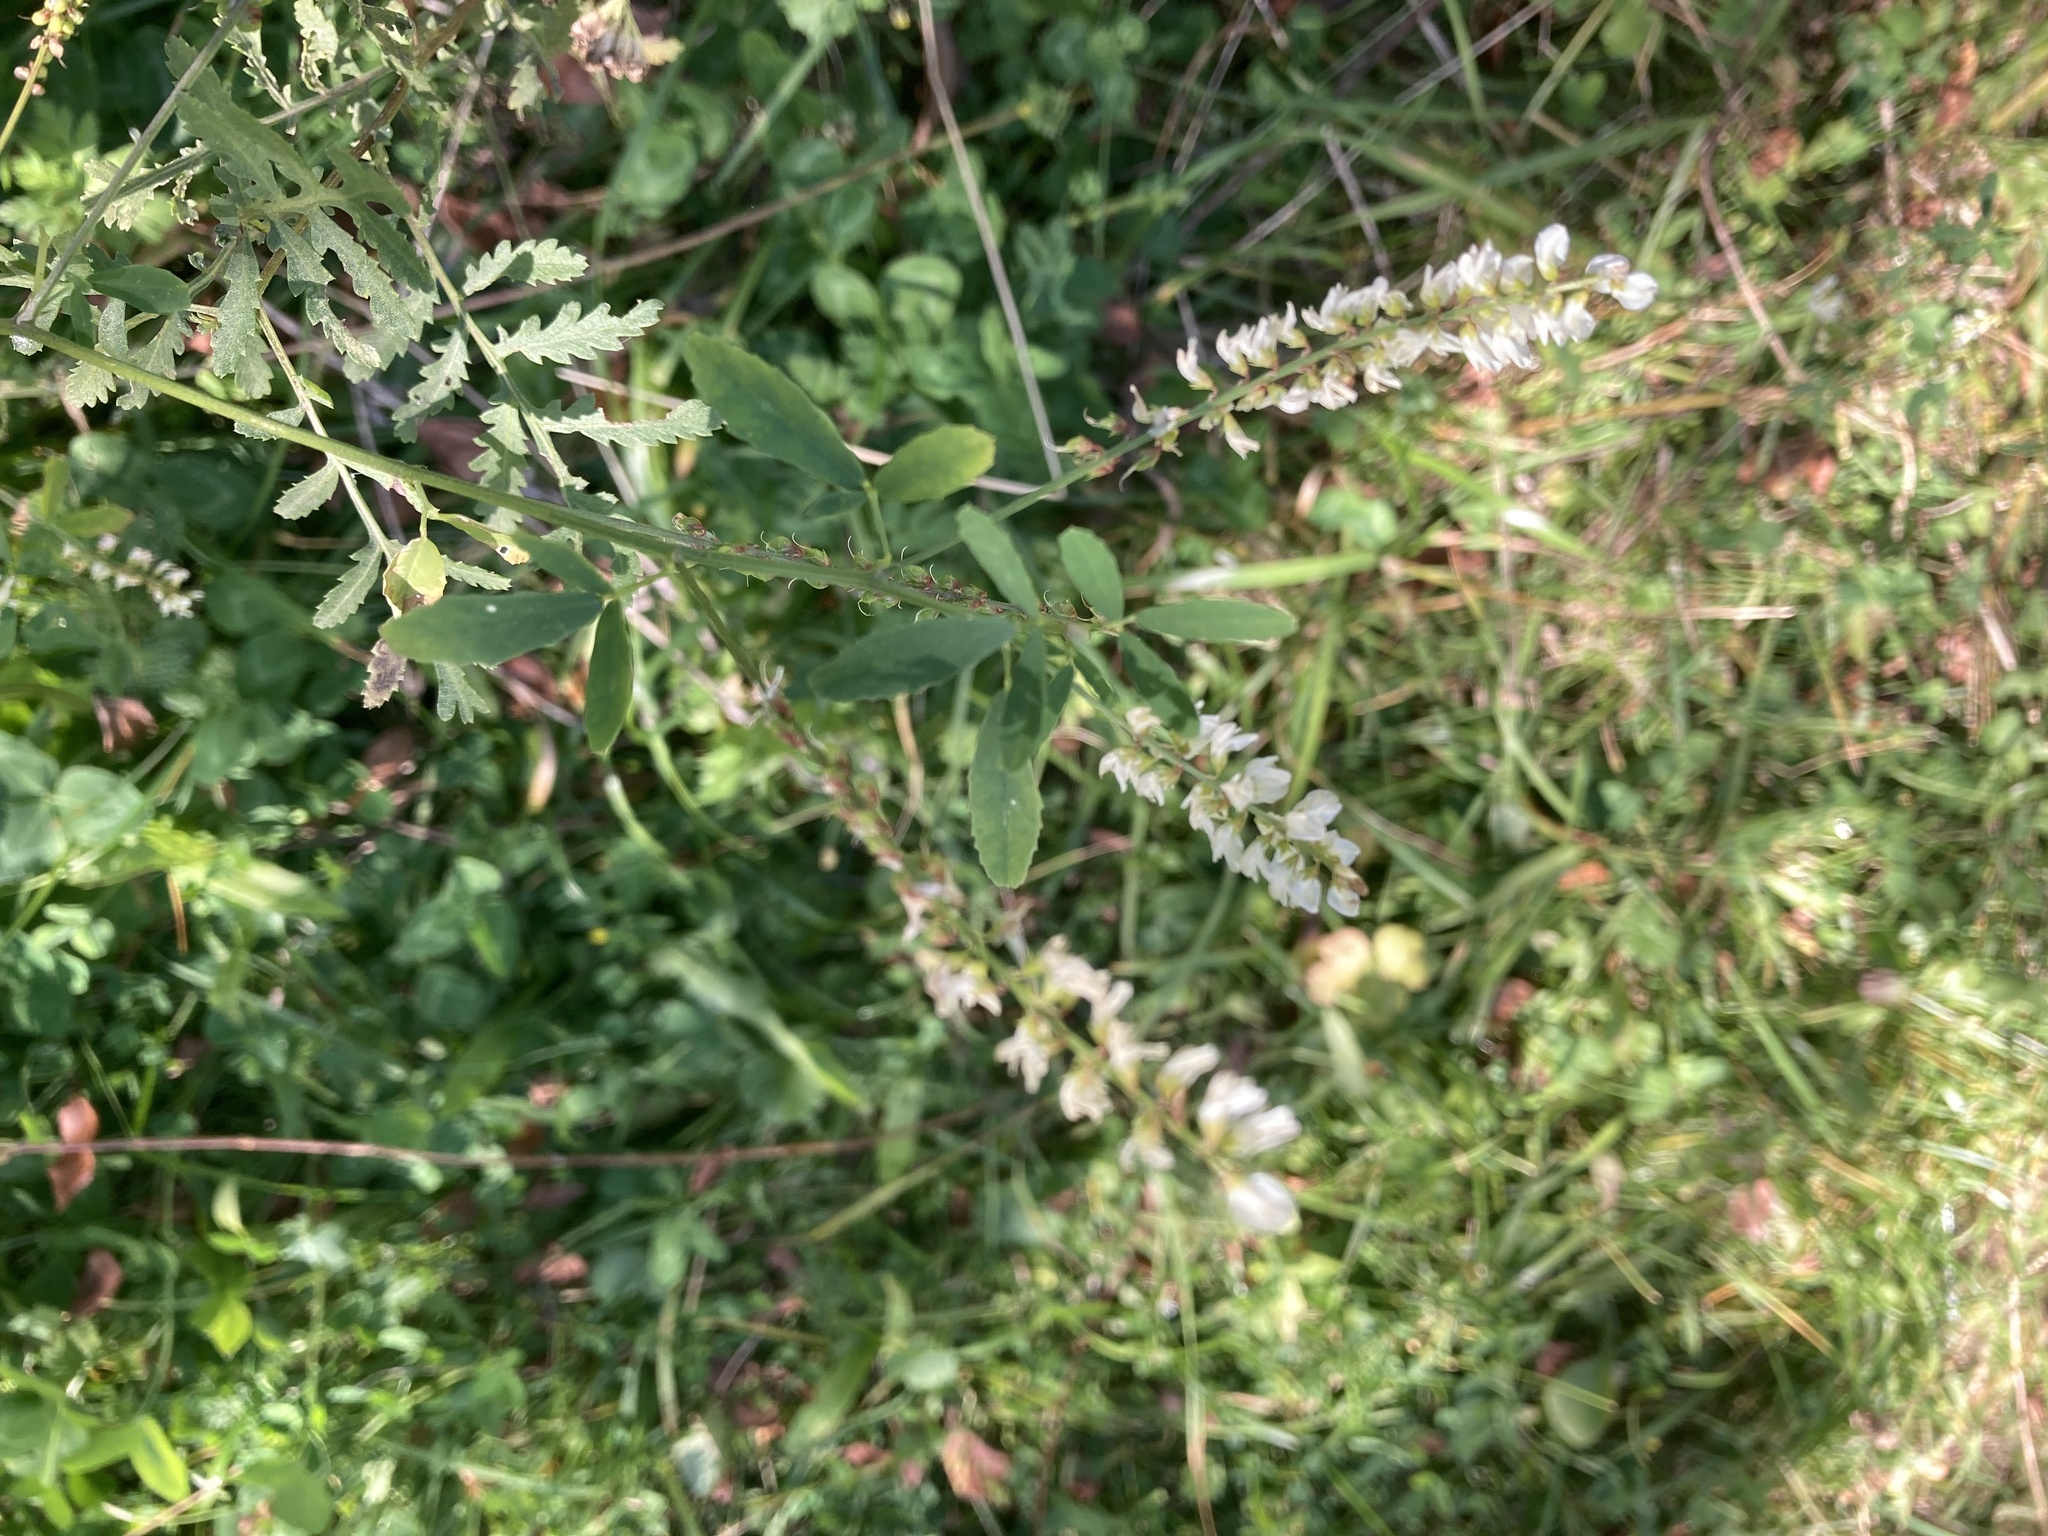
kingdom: Plantae
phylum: Tracheophyta
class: Magnoliopsida
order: Fabales
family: Fabaceae
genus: Melilotus
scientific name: Melilotus albus
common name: White melilot
